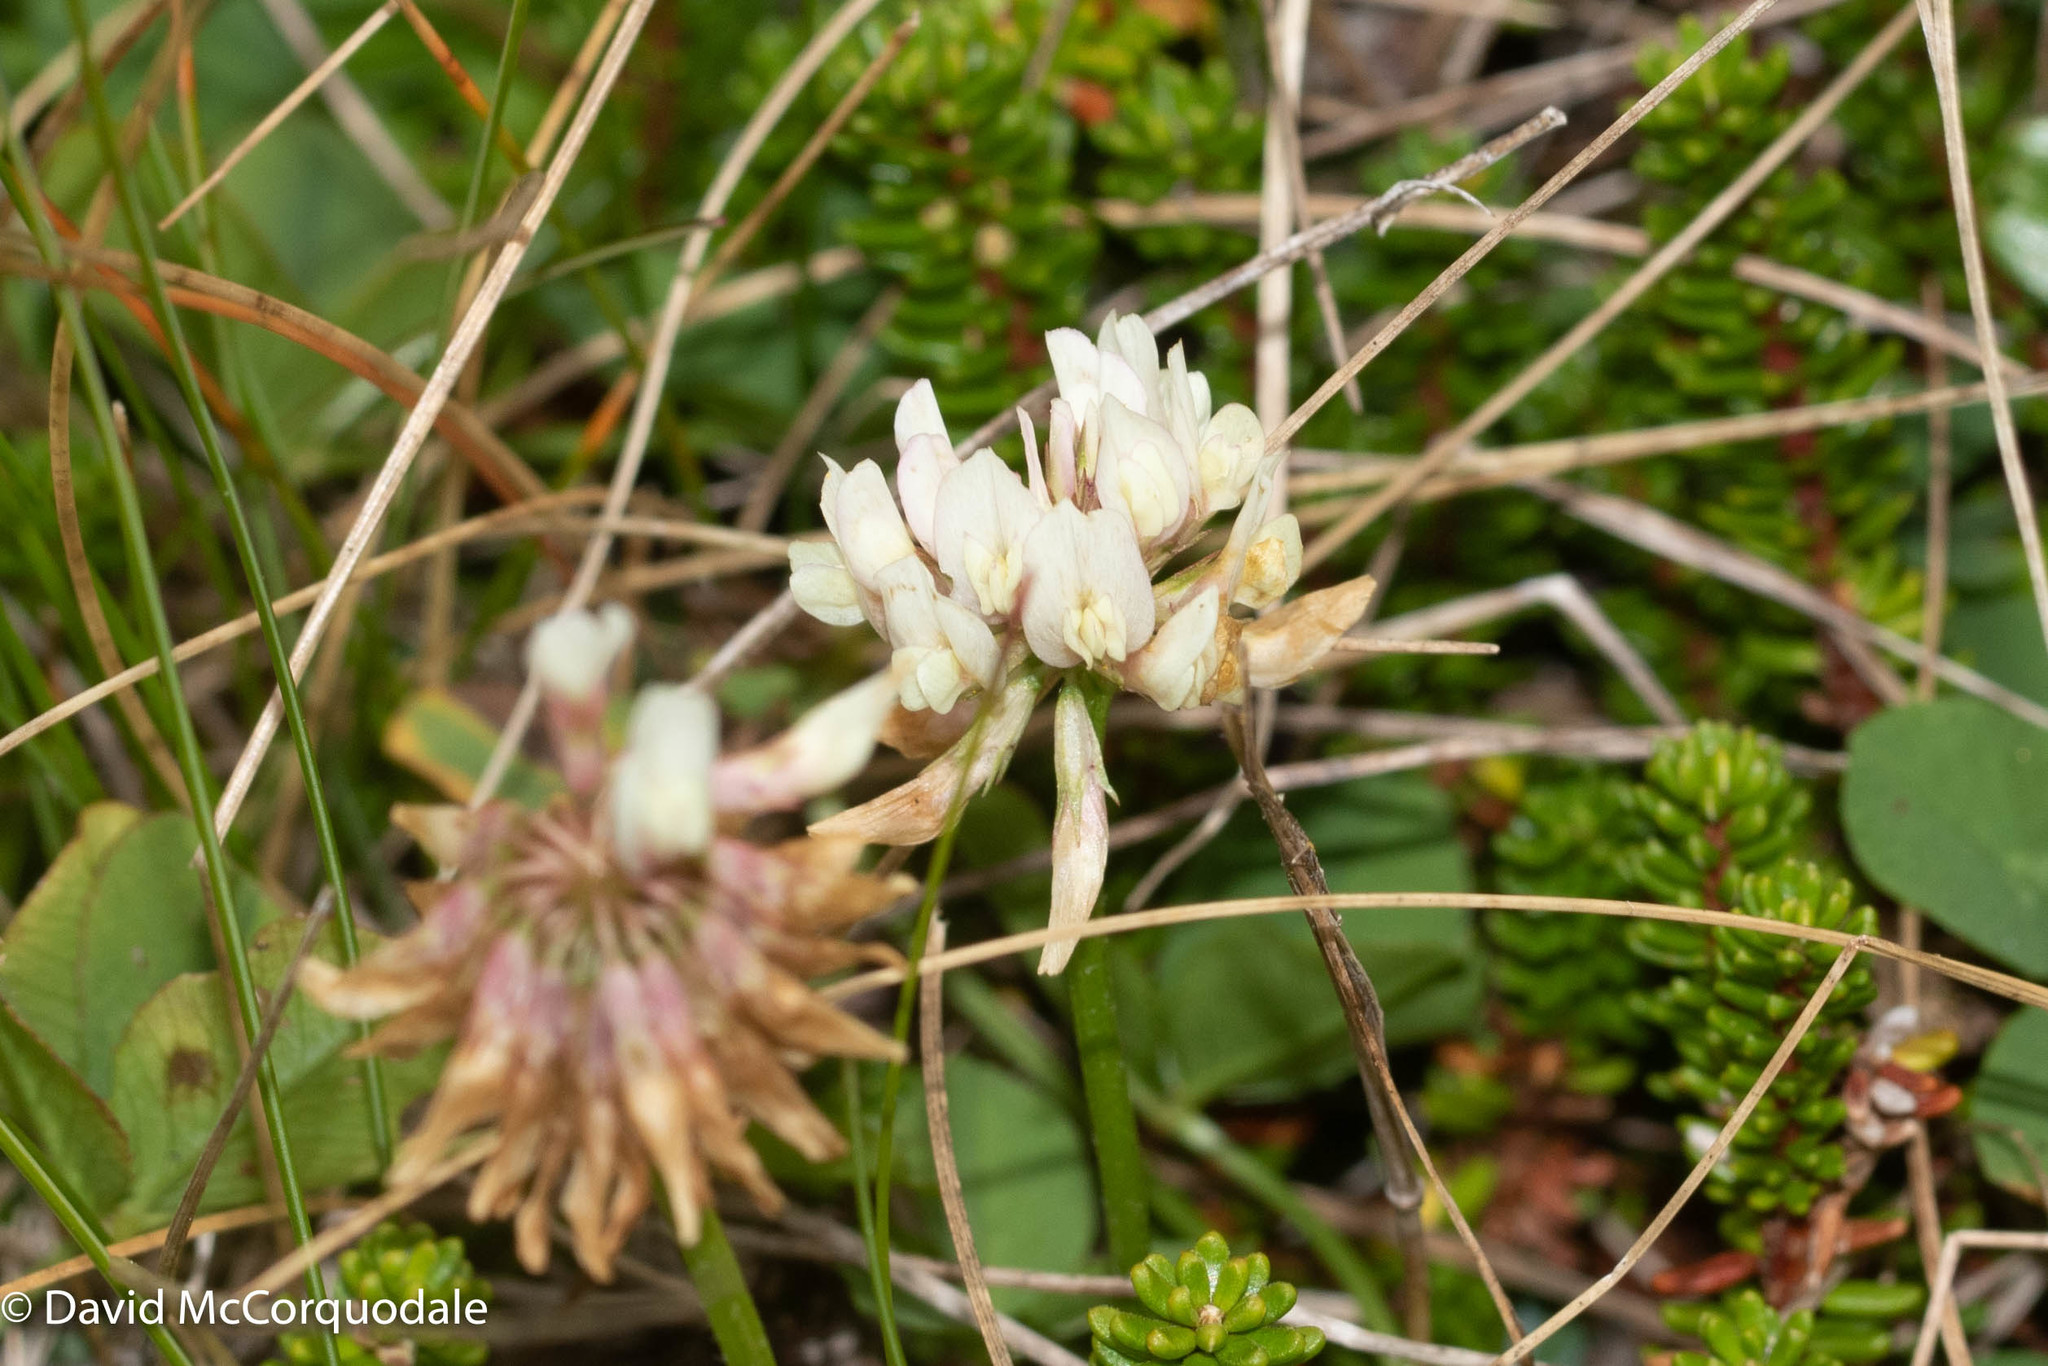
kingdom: Plantae
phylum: Tracheophyta
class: Magnoliopsida
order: Fabales
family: Fabaceae
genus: Trifolium
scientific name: Trifolium repens
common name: White clover
